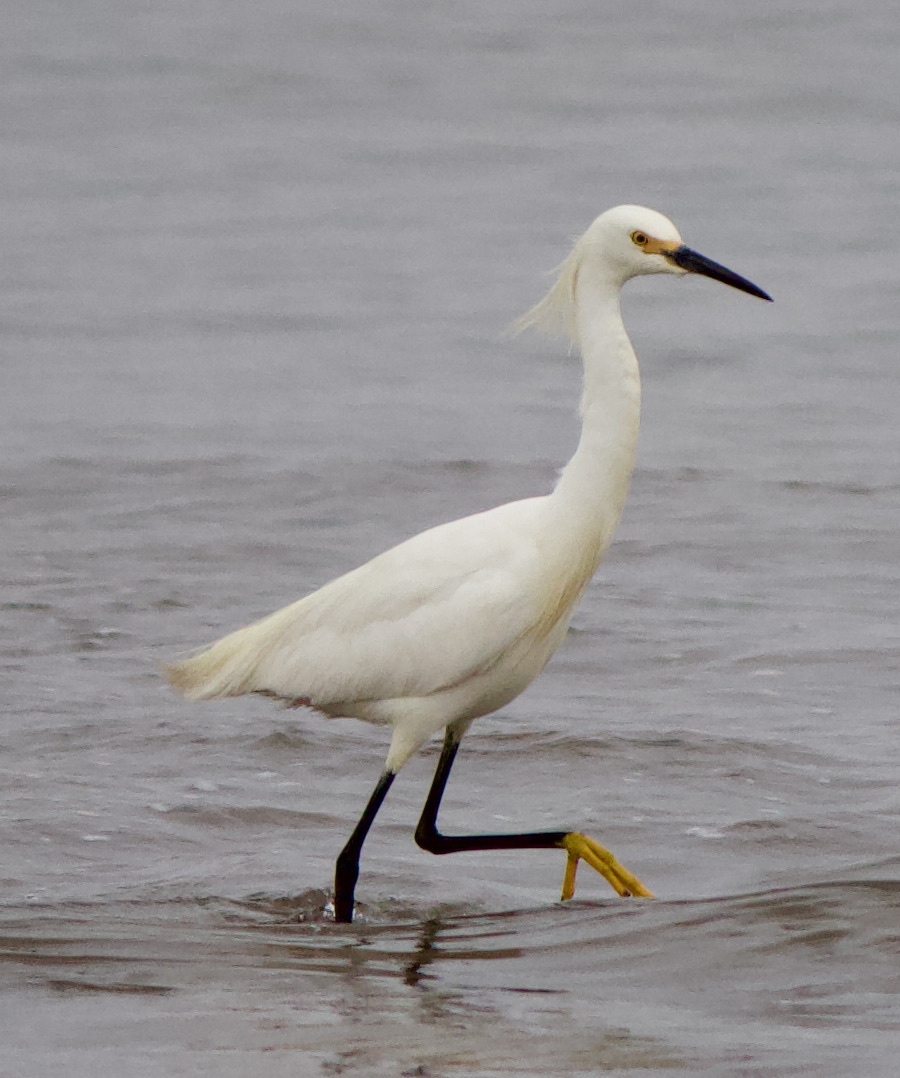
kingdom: Animalia
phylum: Chordata
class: Aves
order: Pelecaniformes
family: Ardeidae
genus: Egretta
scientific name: Egretta thula
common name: Snowy egret
